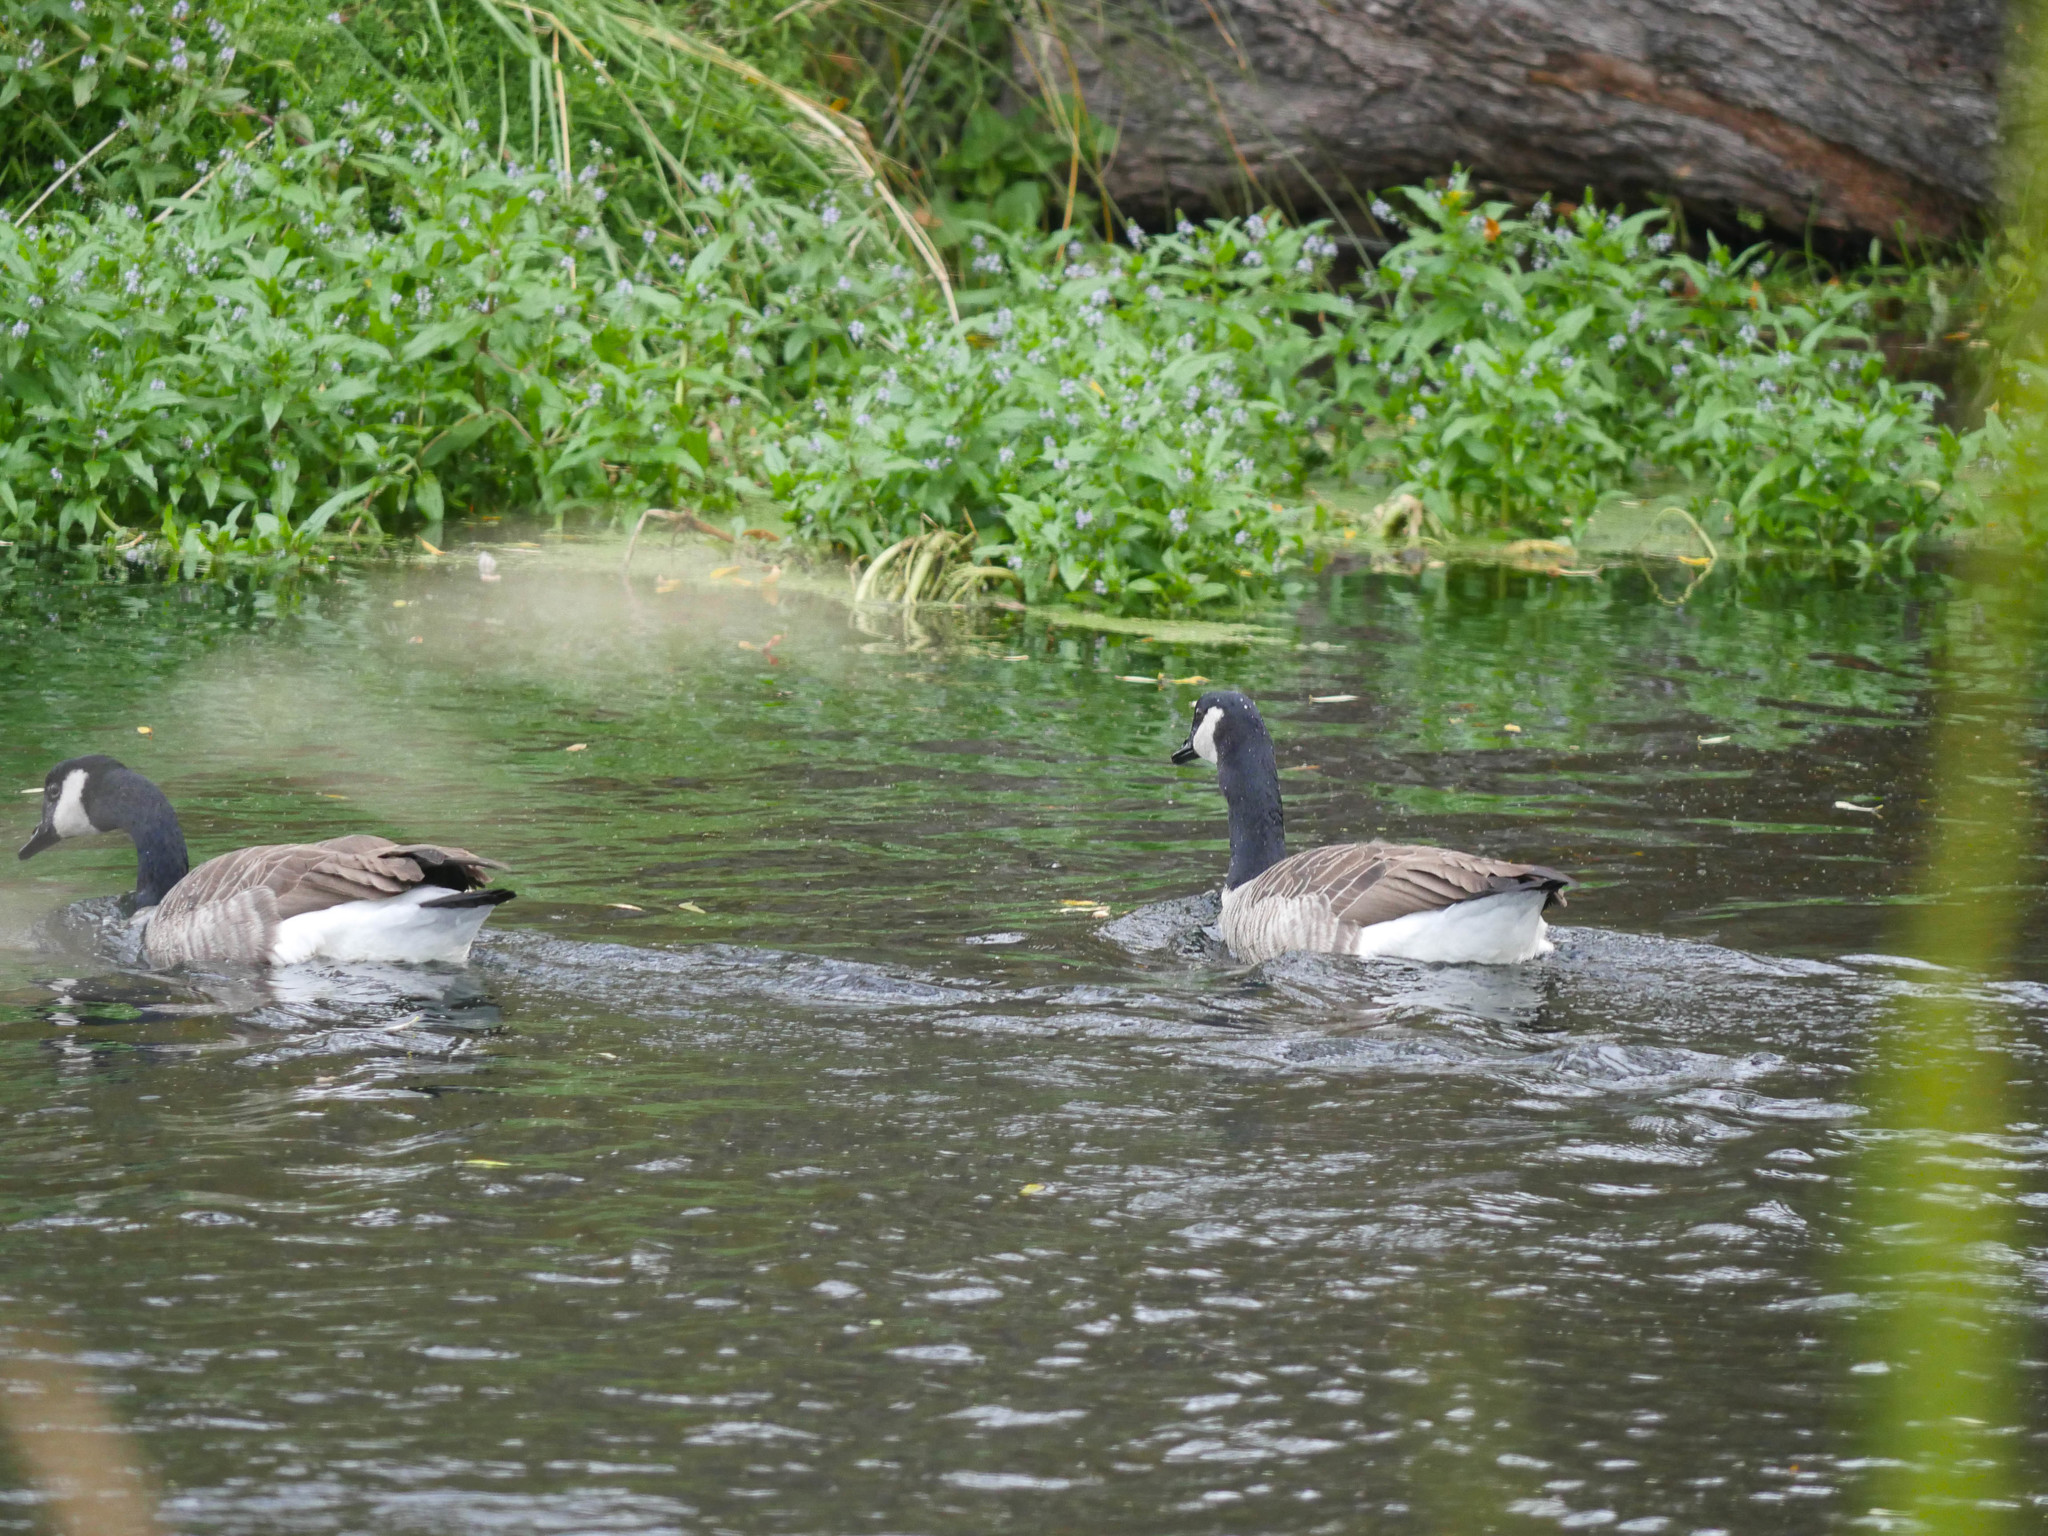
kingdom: Animalia
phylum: Chordata
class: Aves
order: Anseriformes
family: Anatidae
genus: Branta
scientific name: Branta canadensis
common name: Canada goose
